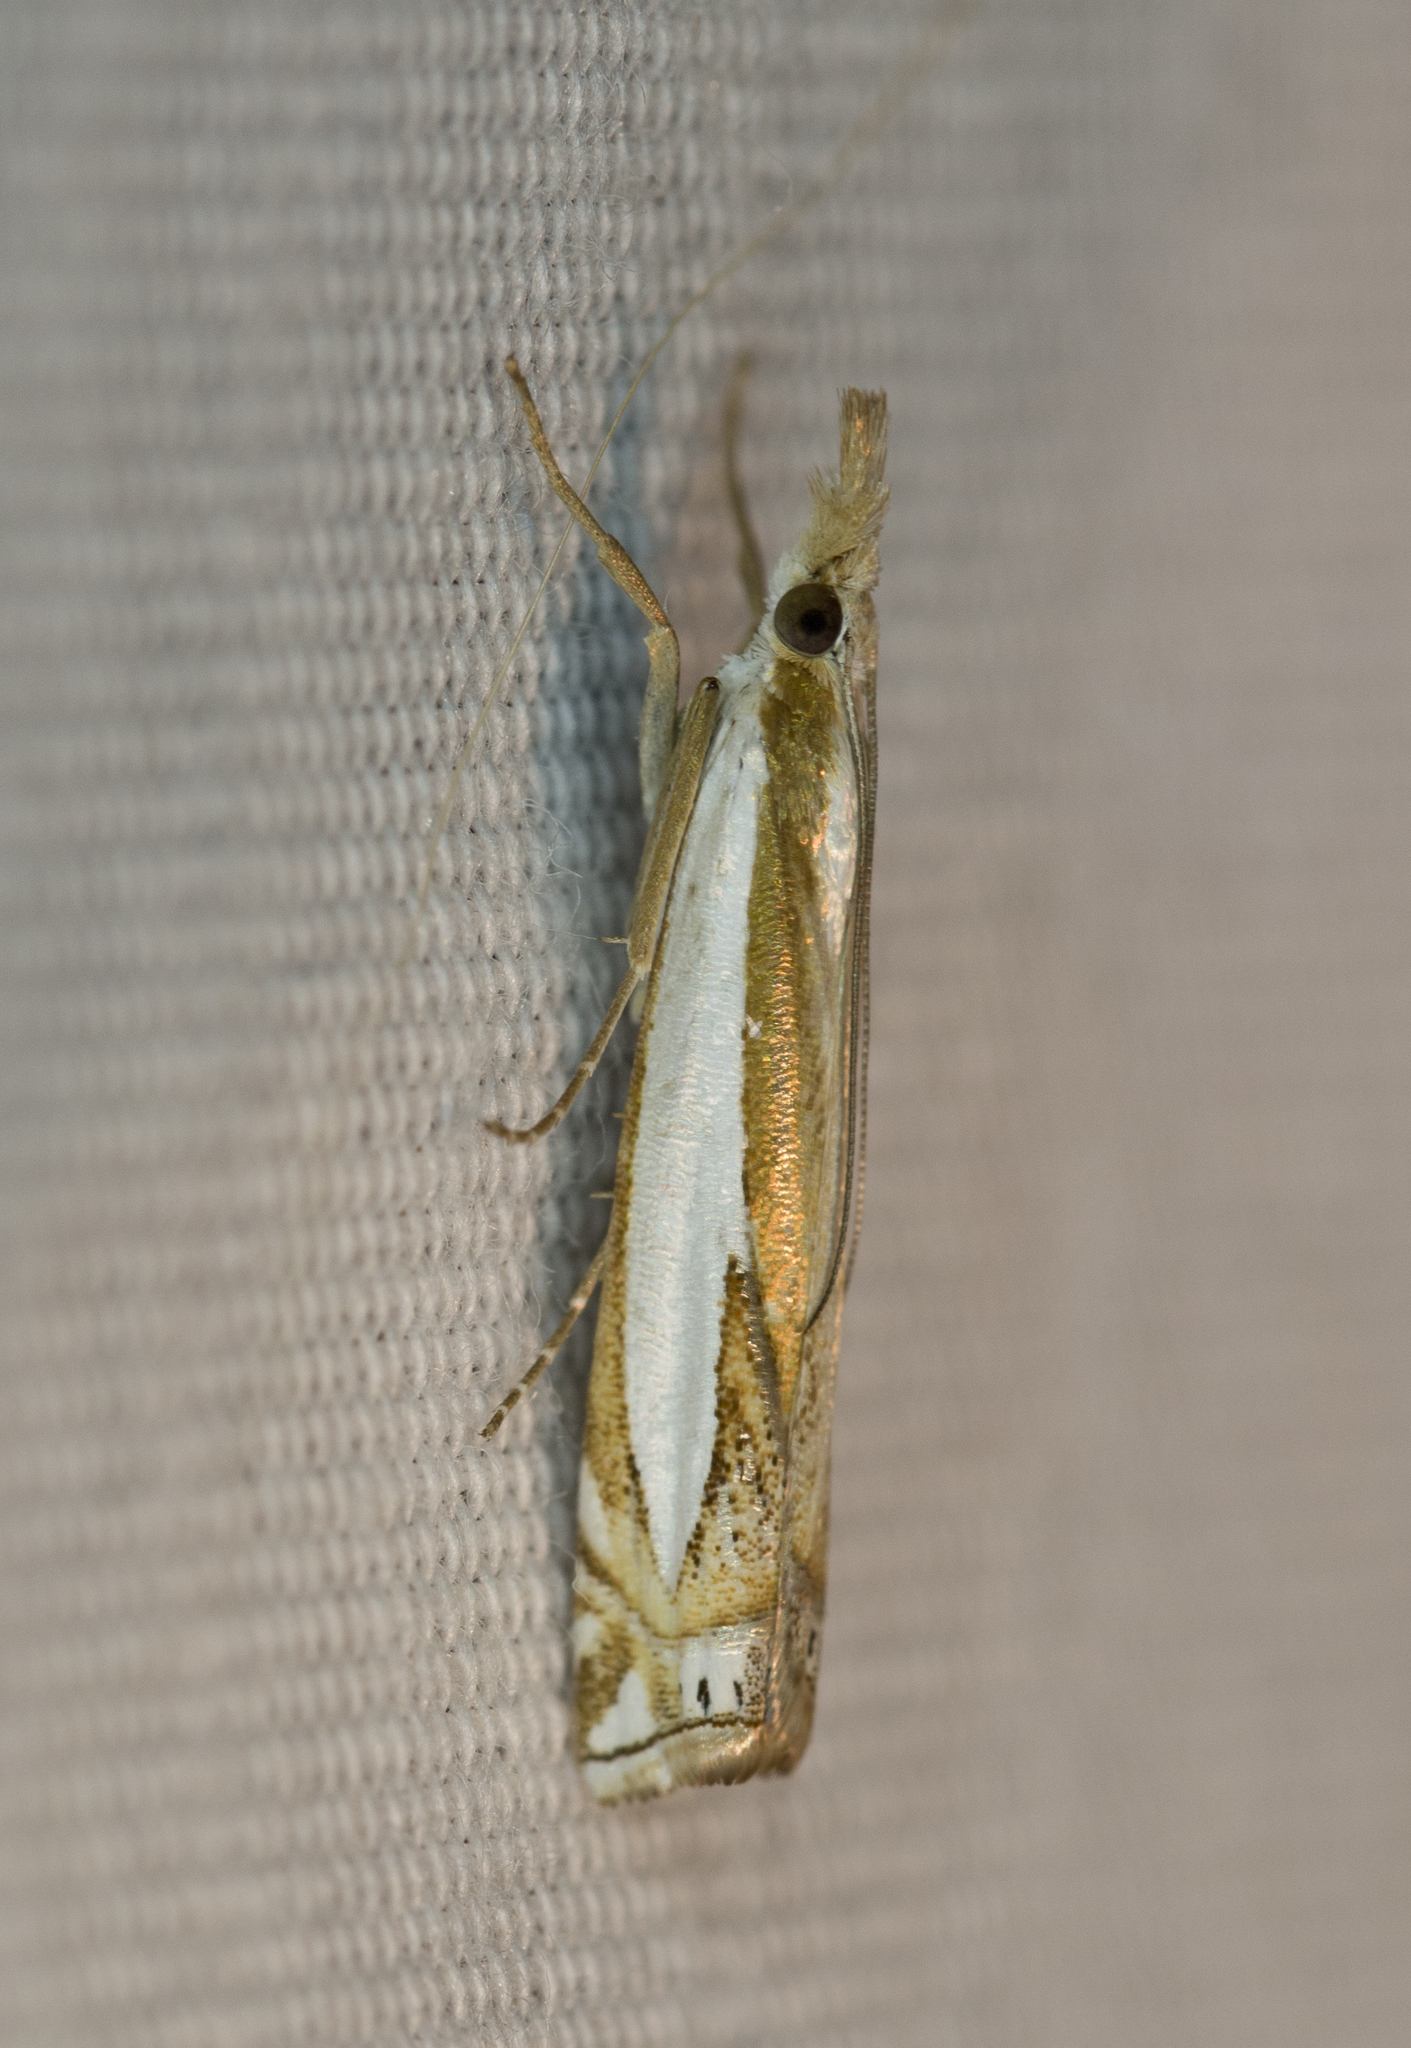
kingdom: Animalia
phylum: Arthropoda
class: Insecta
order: Lepidoptera
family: Crambidae
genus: Crambus
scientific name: Crambus cyrilellus
